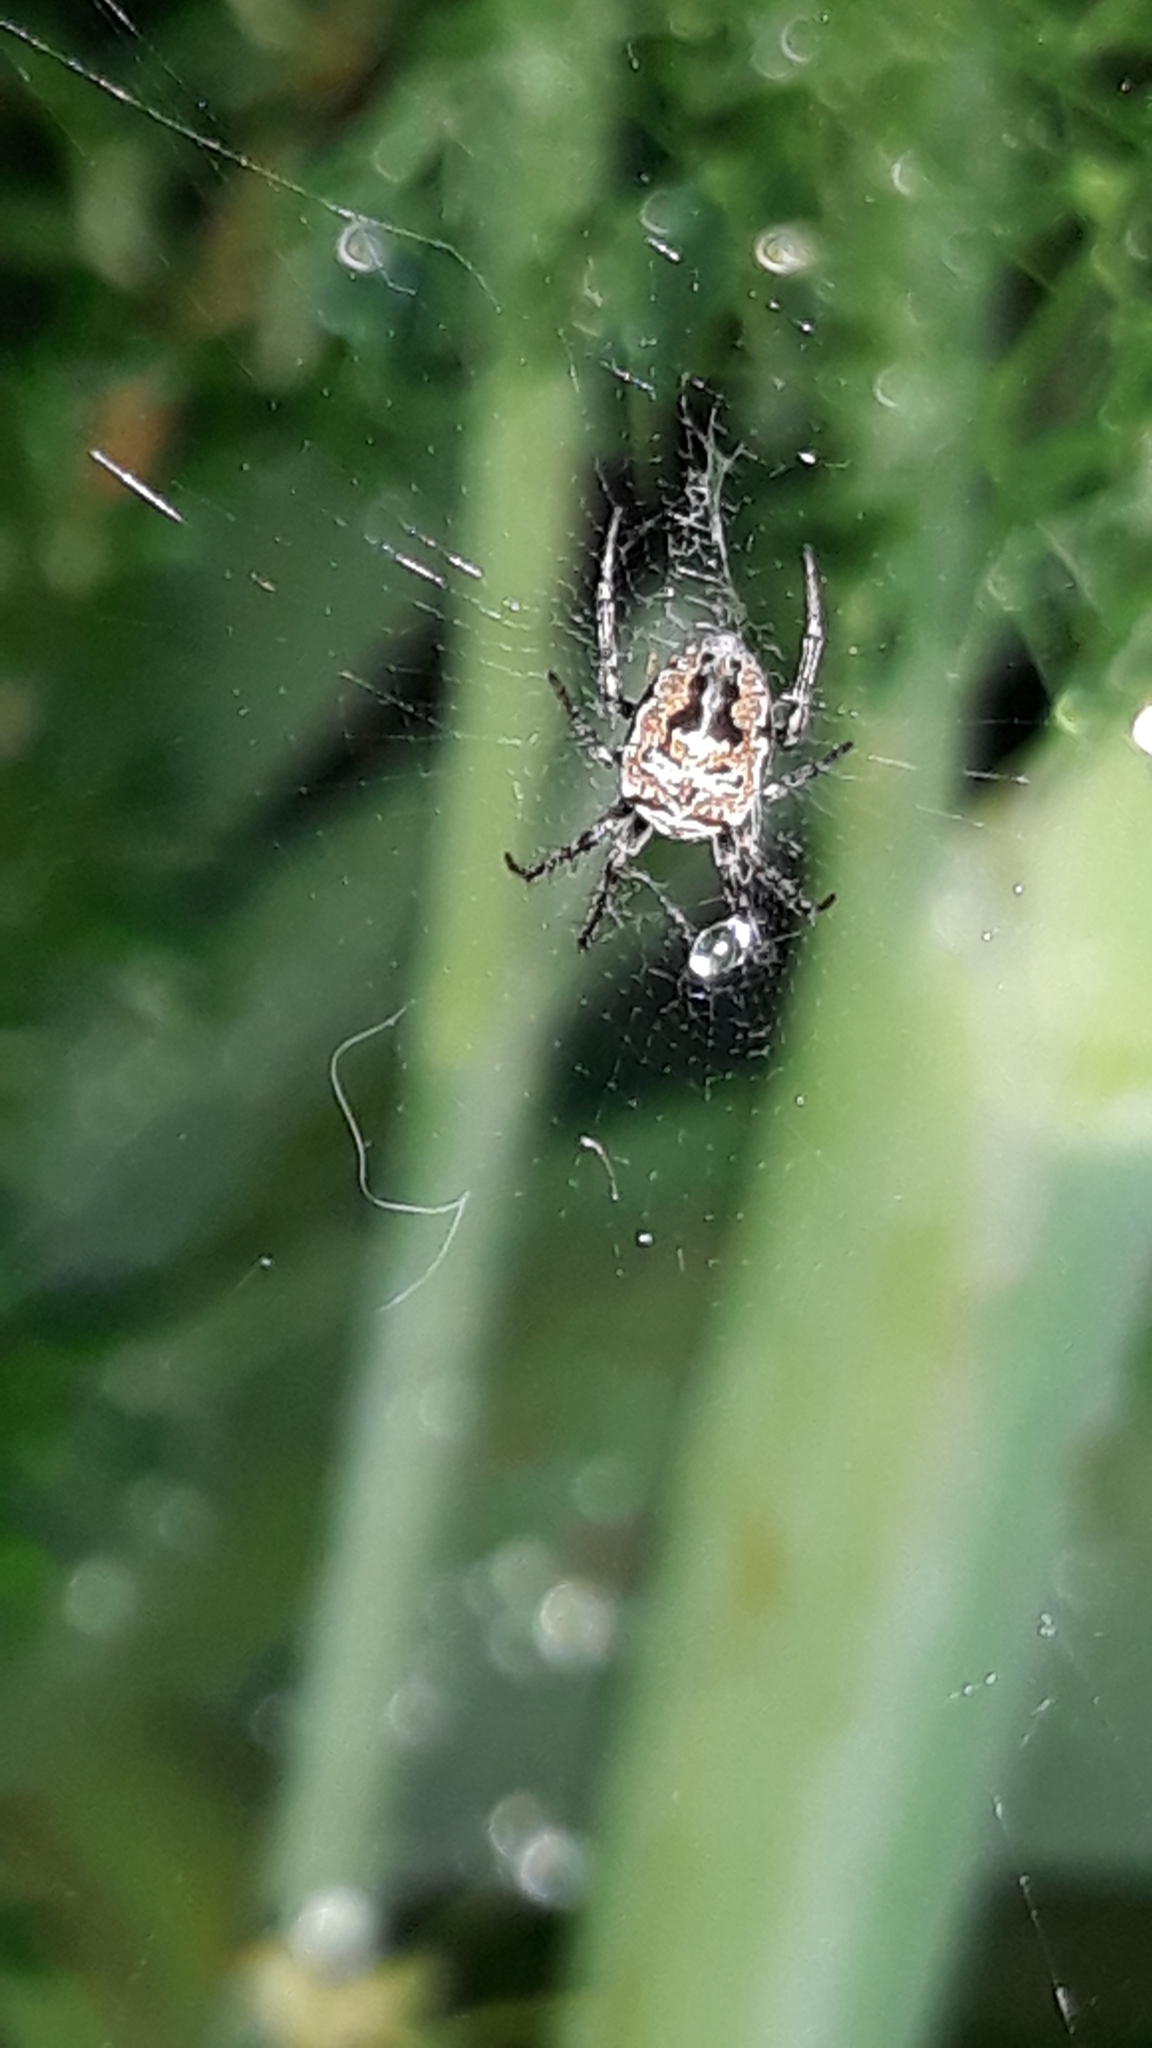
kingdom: Animalia
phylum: Arthropoda
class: Arachnida
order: Araneae
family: Araneidae
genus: Zilla
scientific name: Zilla diodia
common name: Zilla diodia
